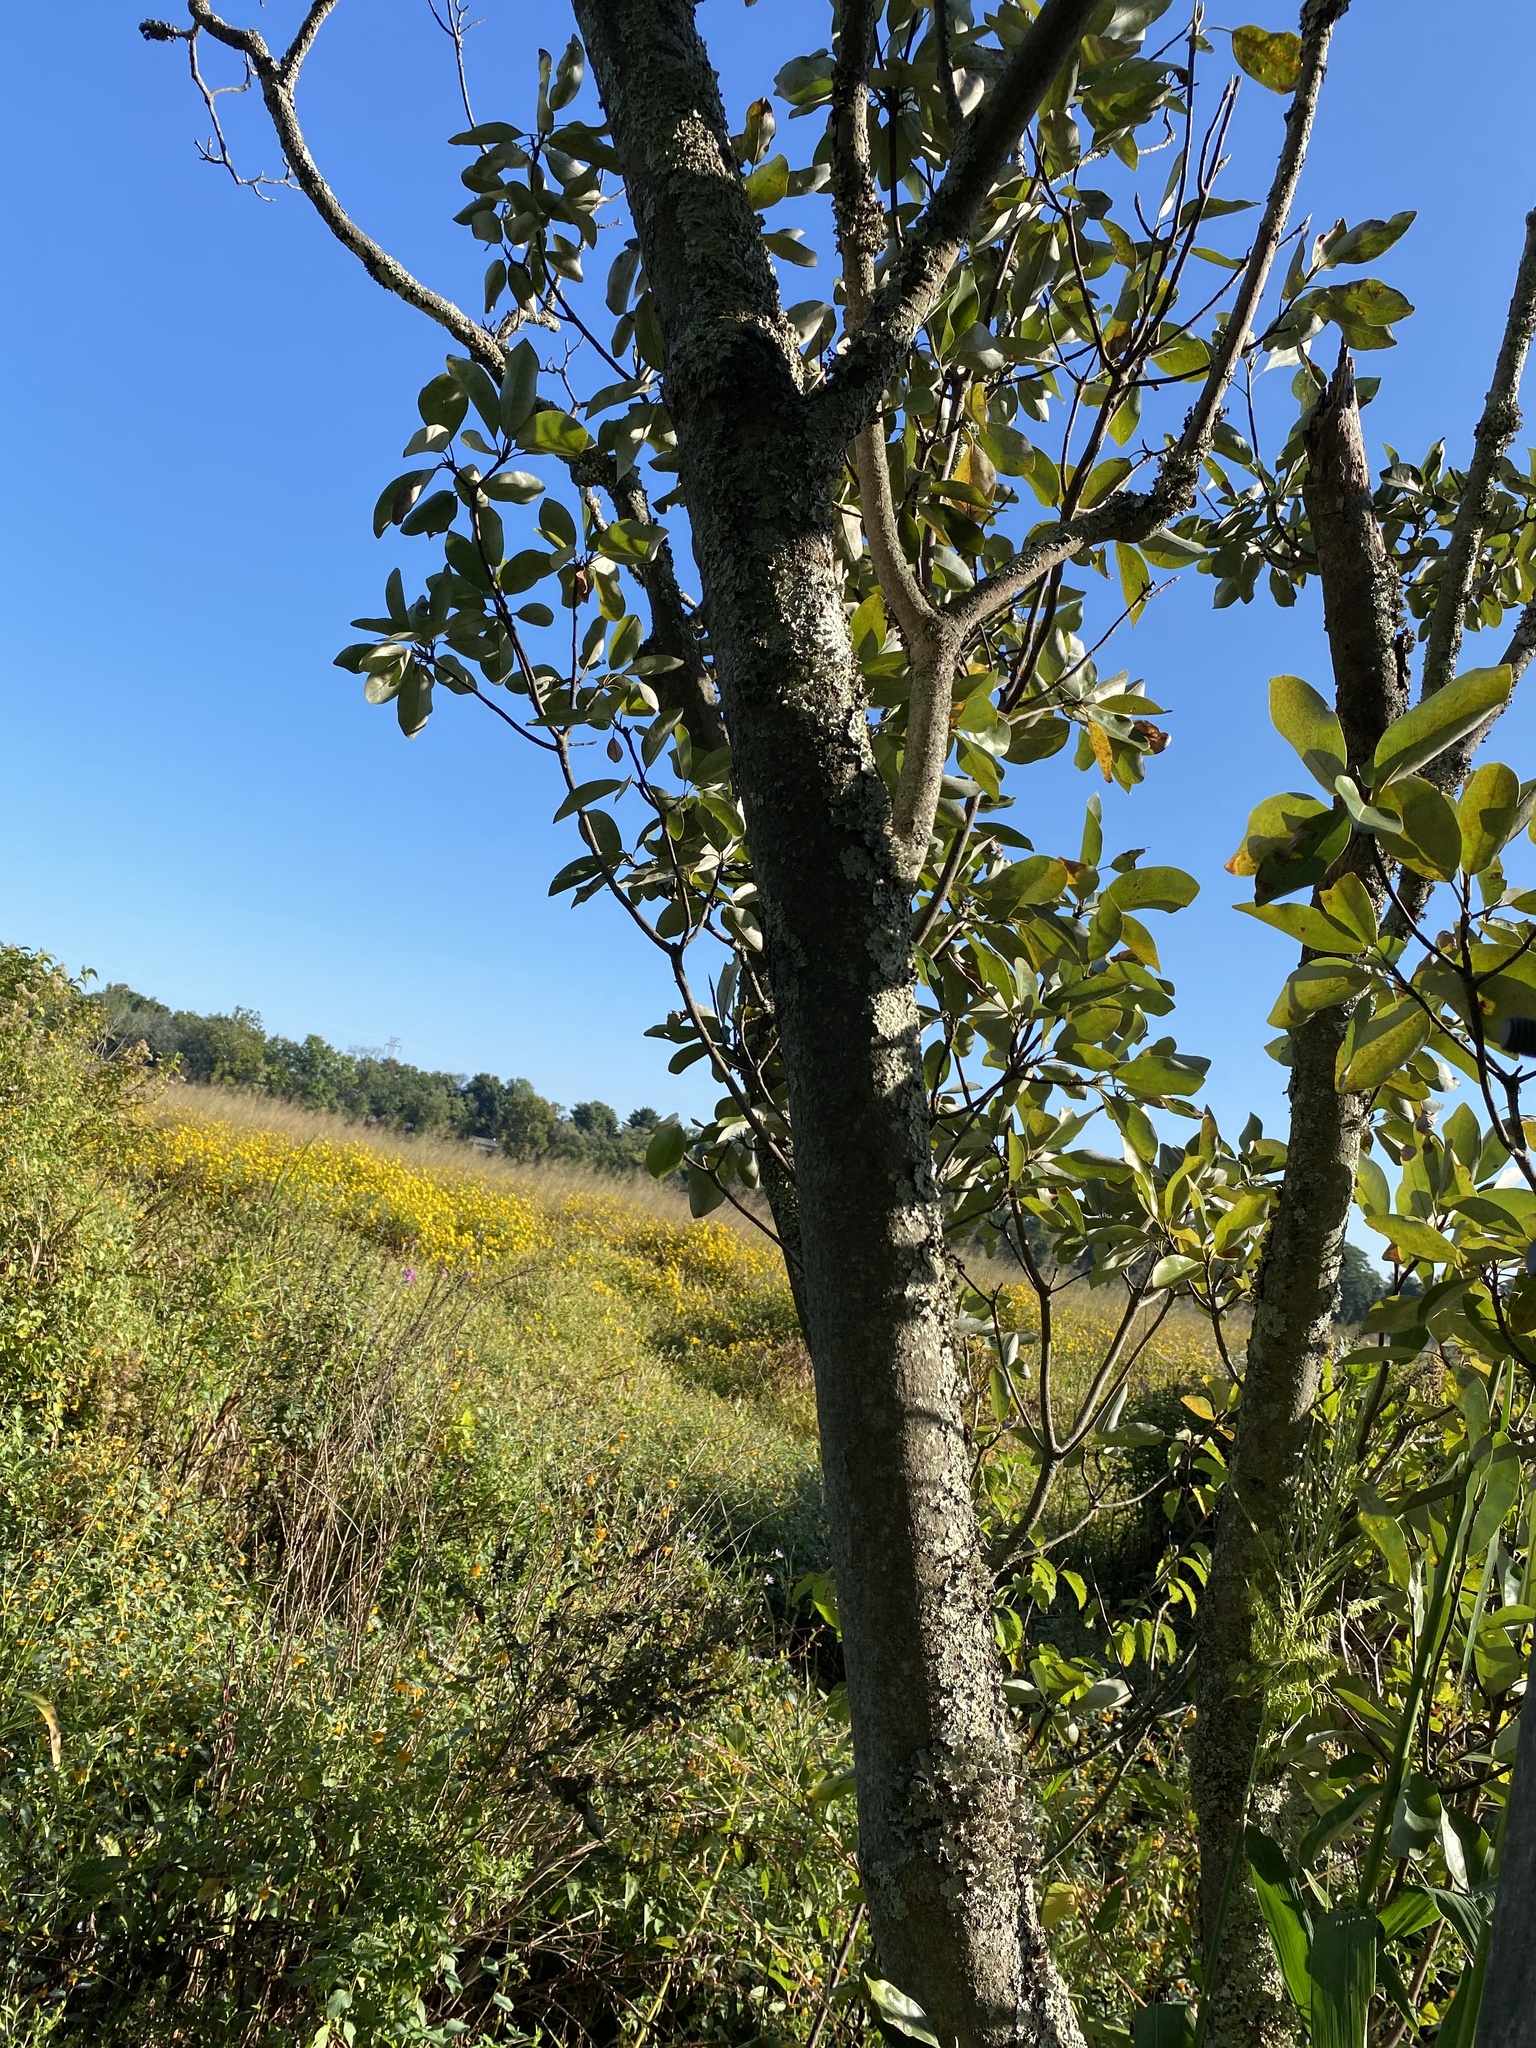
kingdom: Plantae
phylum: Tracheophyta
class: Magnoliopsida
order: Magnoliales
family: Magnoliaceae
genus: Magnolia
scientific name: Magnolia virginiana
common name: Swamp bay
